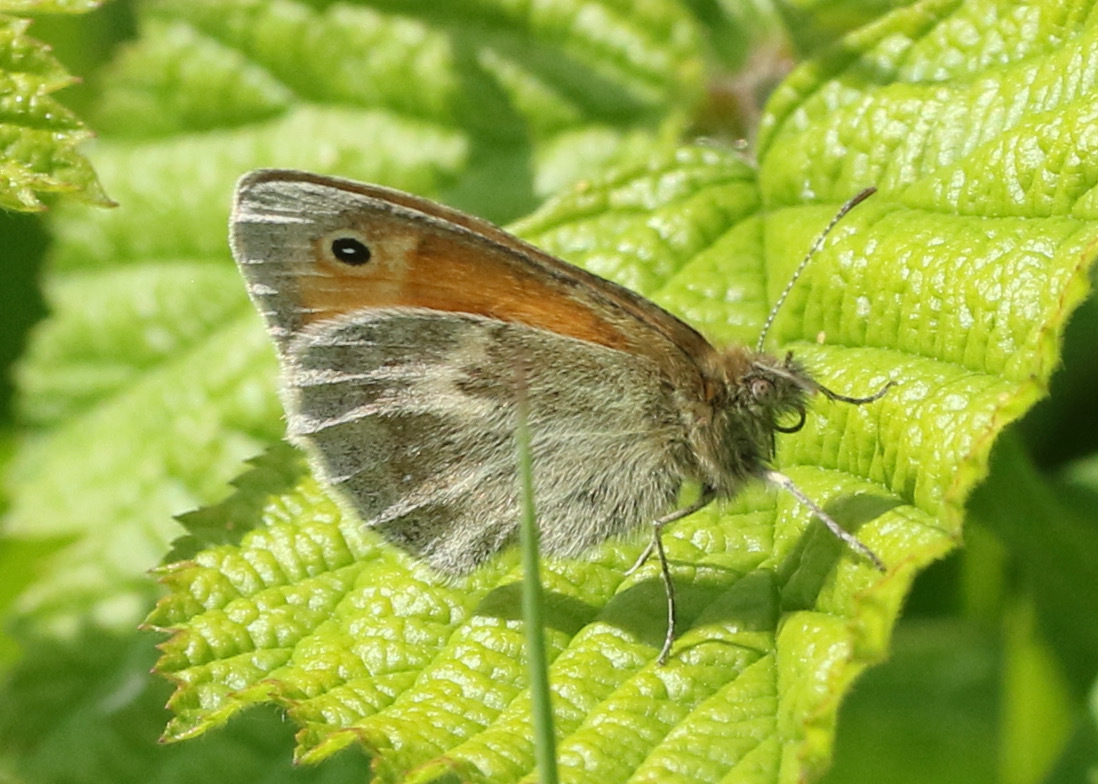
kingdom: Animalia
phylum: Arthropoda
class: Insecta
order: Lepidoptera
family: Nymphalidae
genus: Coenonympha
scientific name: Coenonympha pamphilus
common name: Small heath
